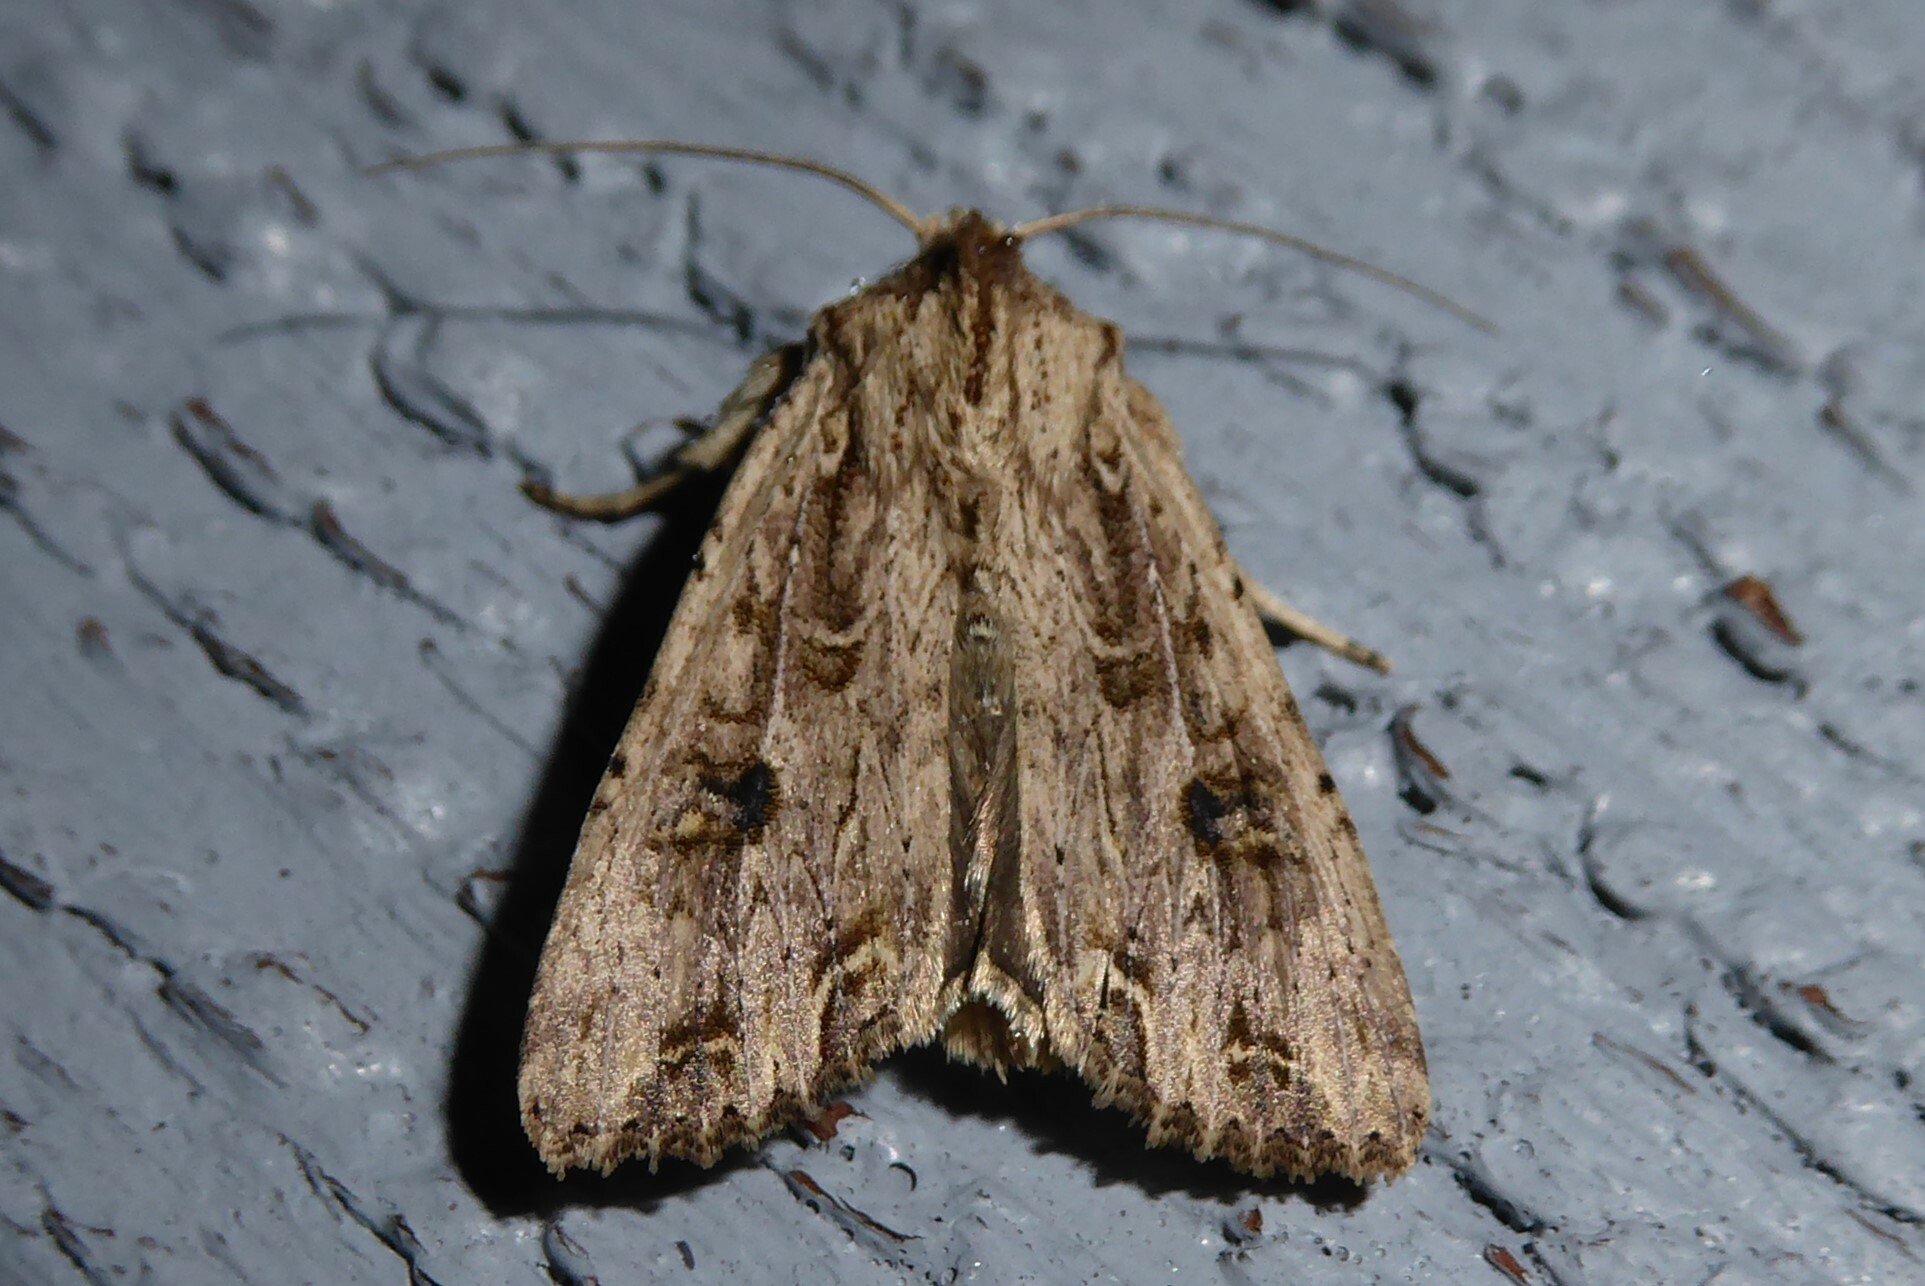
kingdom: Animalia
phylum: Arthropoda
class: Insecta
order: Lepidoptera
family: Noctuidae
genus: Ichneutica
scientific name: Ichneutica lignana
